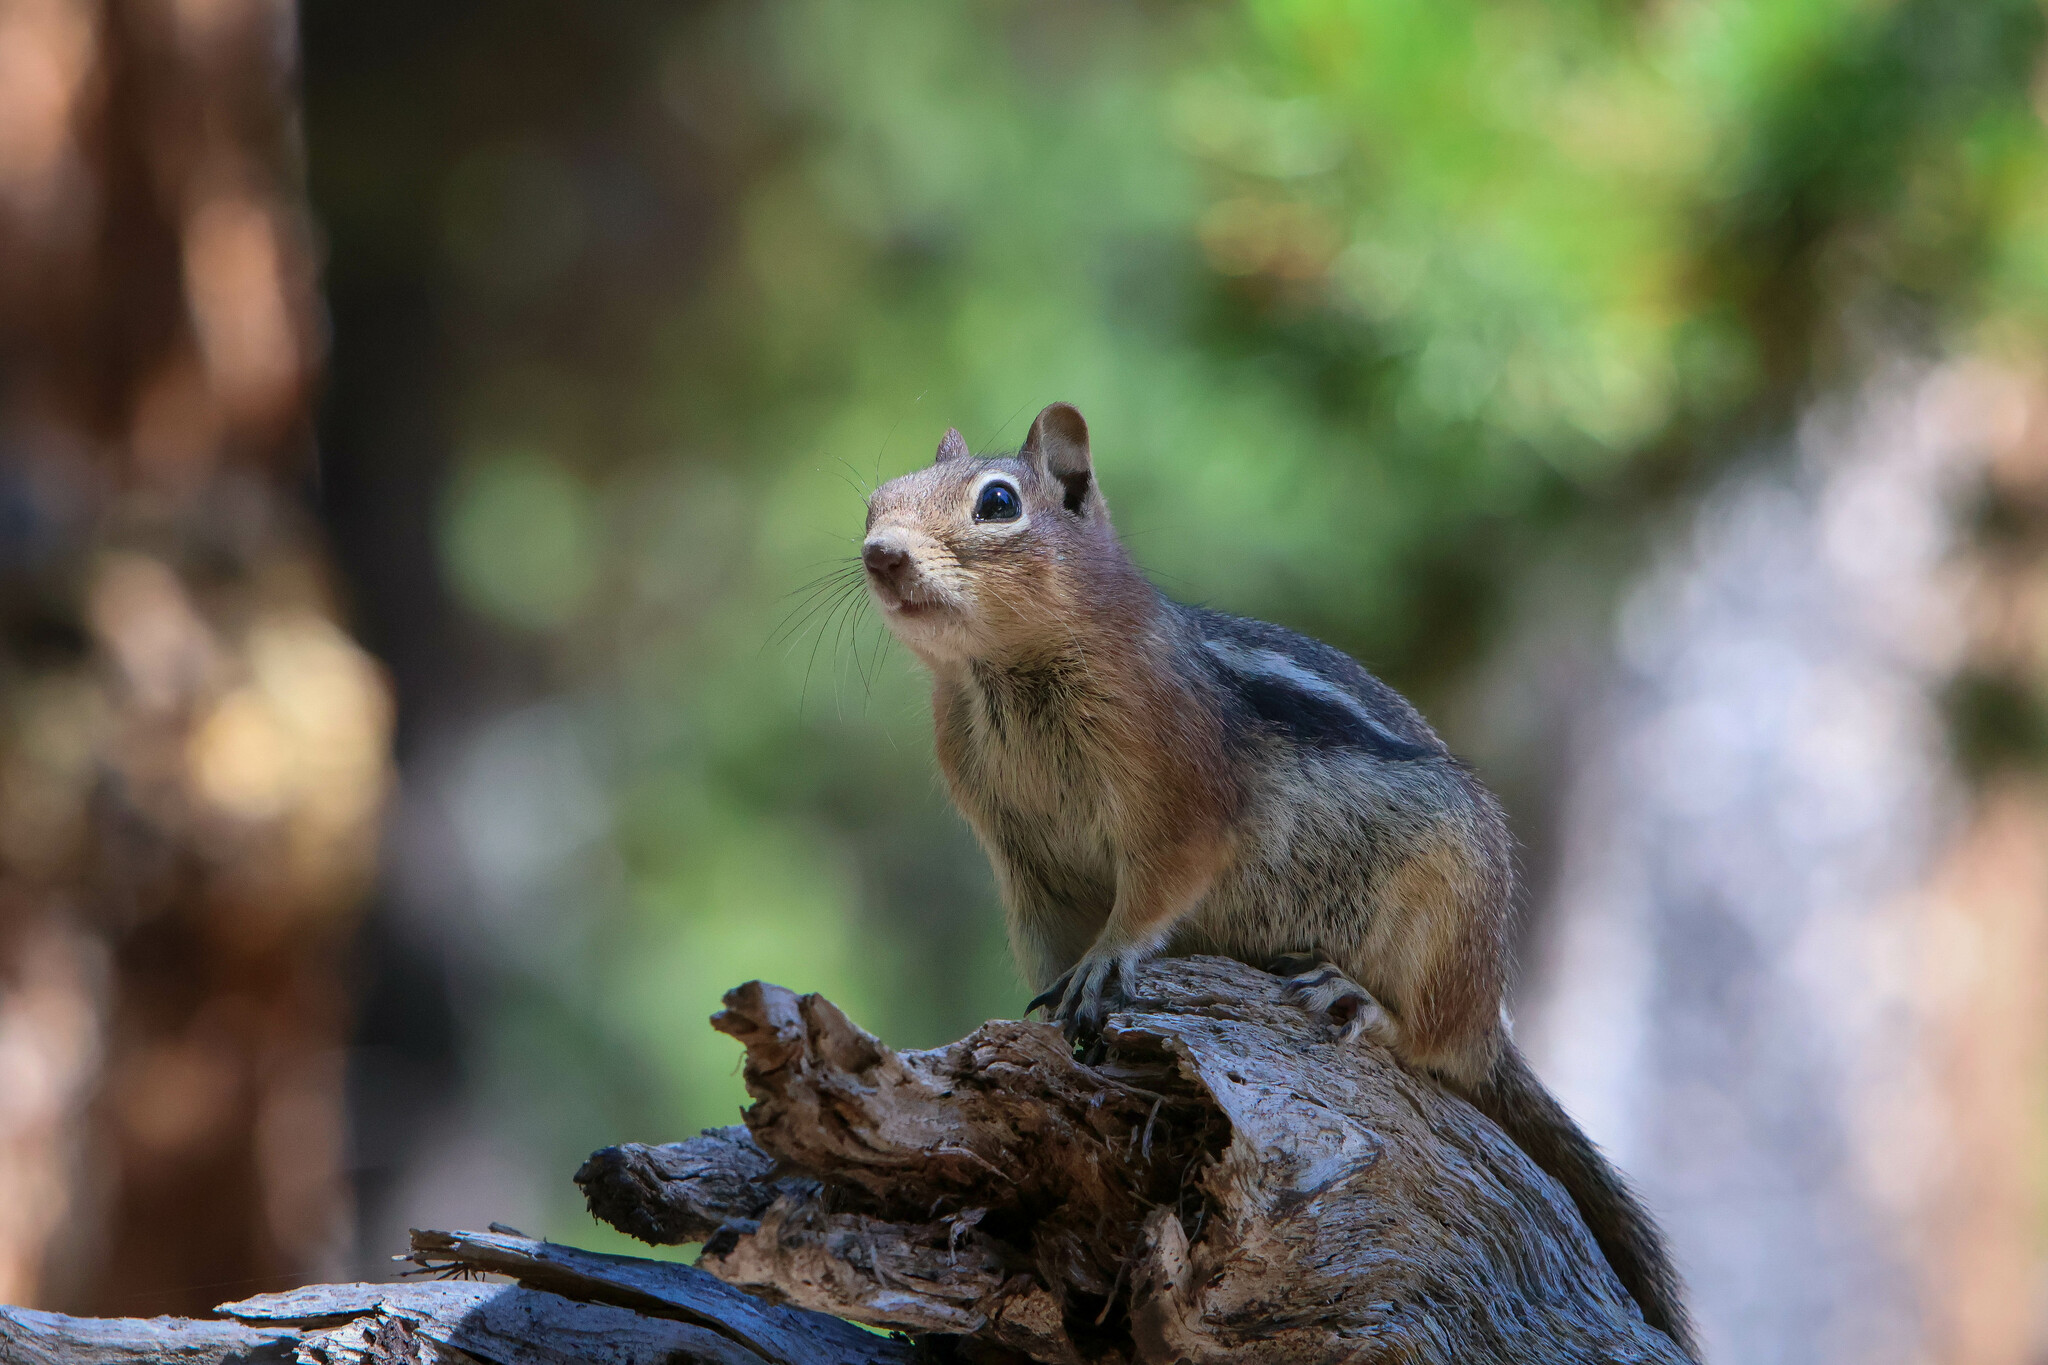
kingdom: Animalia
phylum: Chordata
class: Mammalia
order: Rodentia
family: Sciuridae
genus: Callospermophilus
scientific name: Callospermophilus lateralis
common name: Golden-mantled ground squirrel
